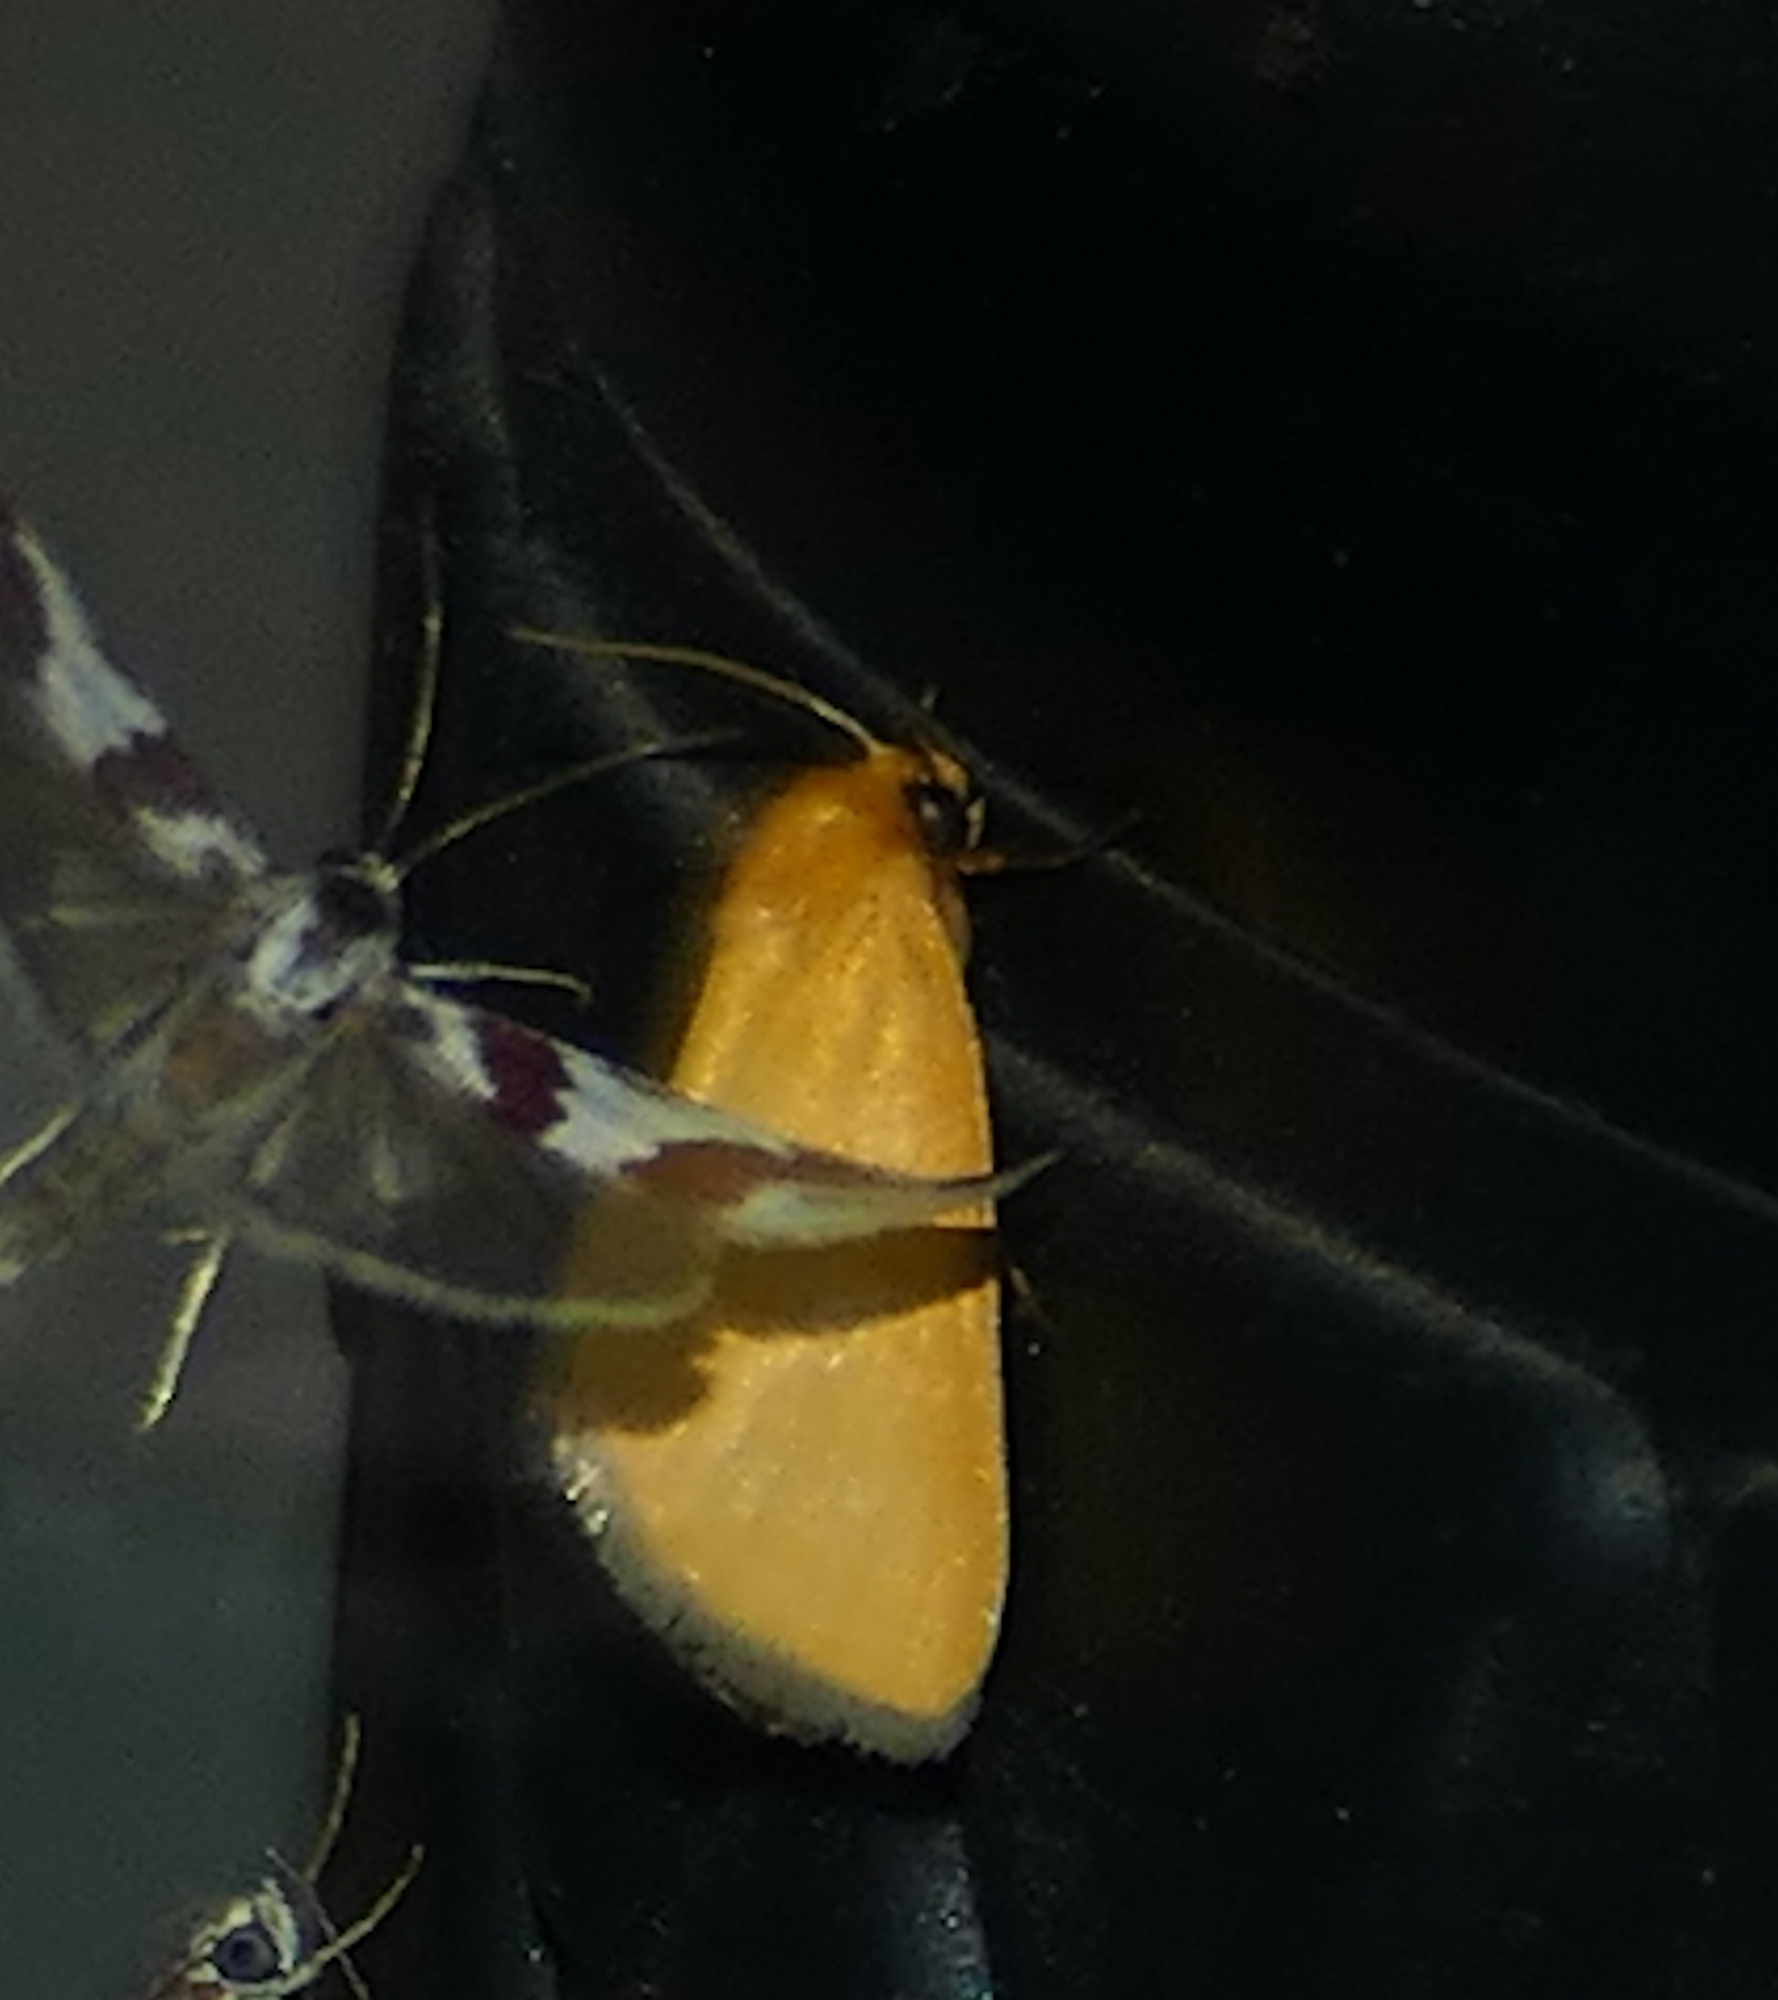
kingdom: Animalia
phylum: Arthropoda
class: Insecta
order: Lepidoptera
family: Noctuidae
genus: Antaplaga
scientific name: Antaplaga Eulithosia composita
